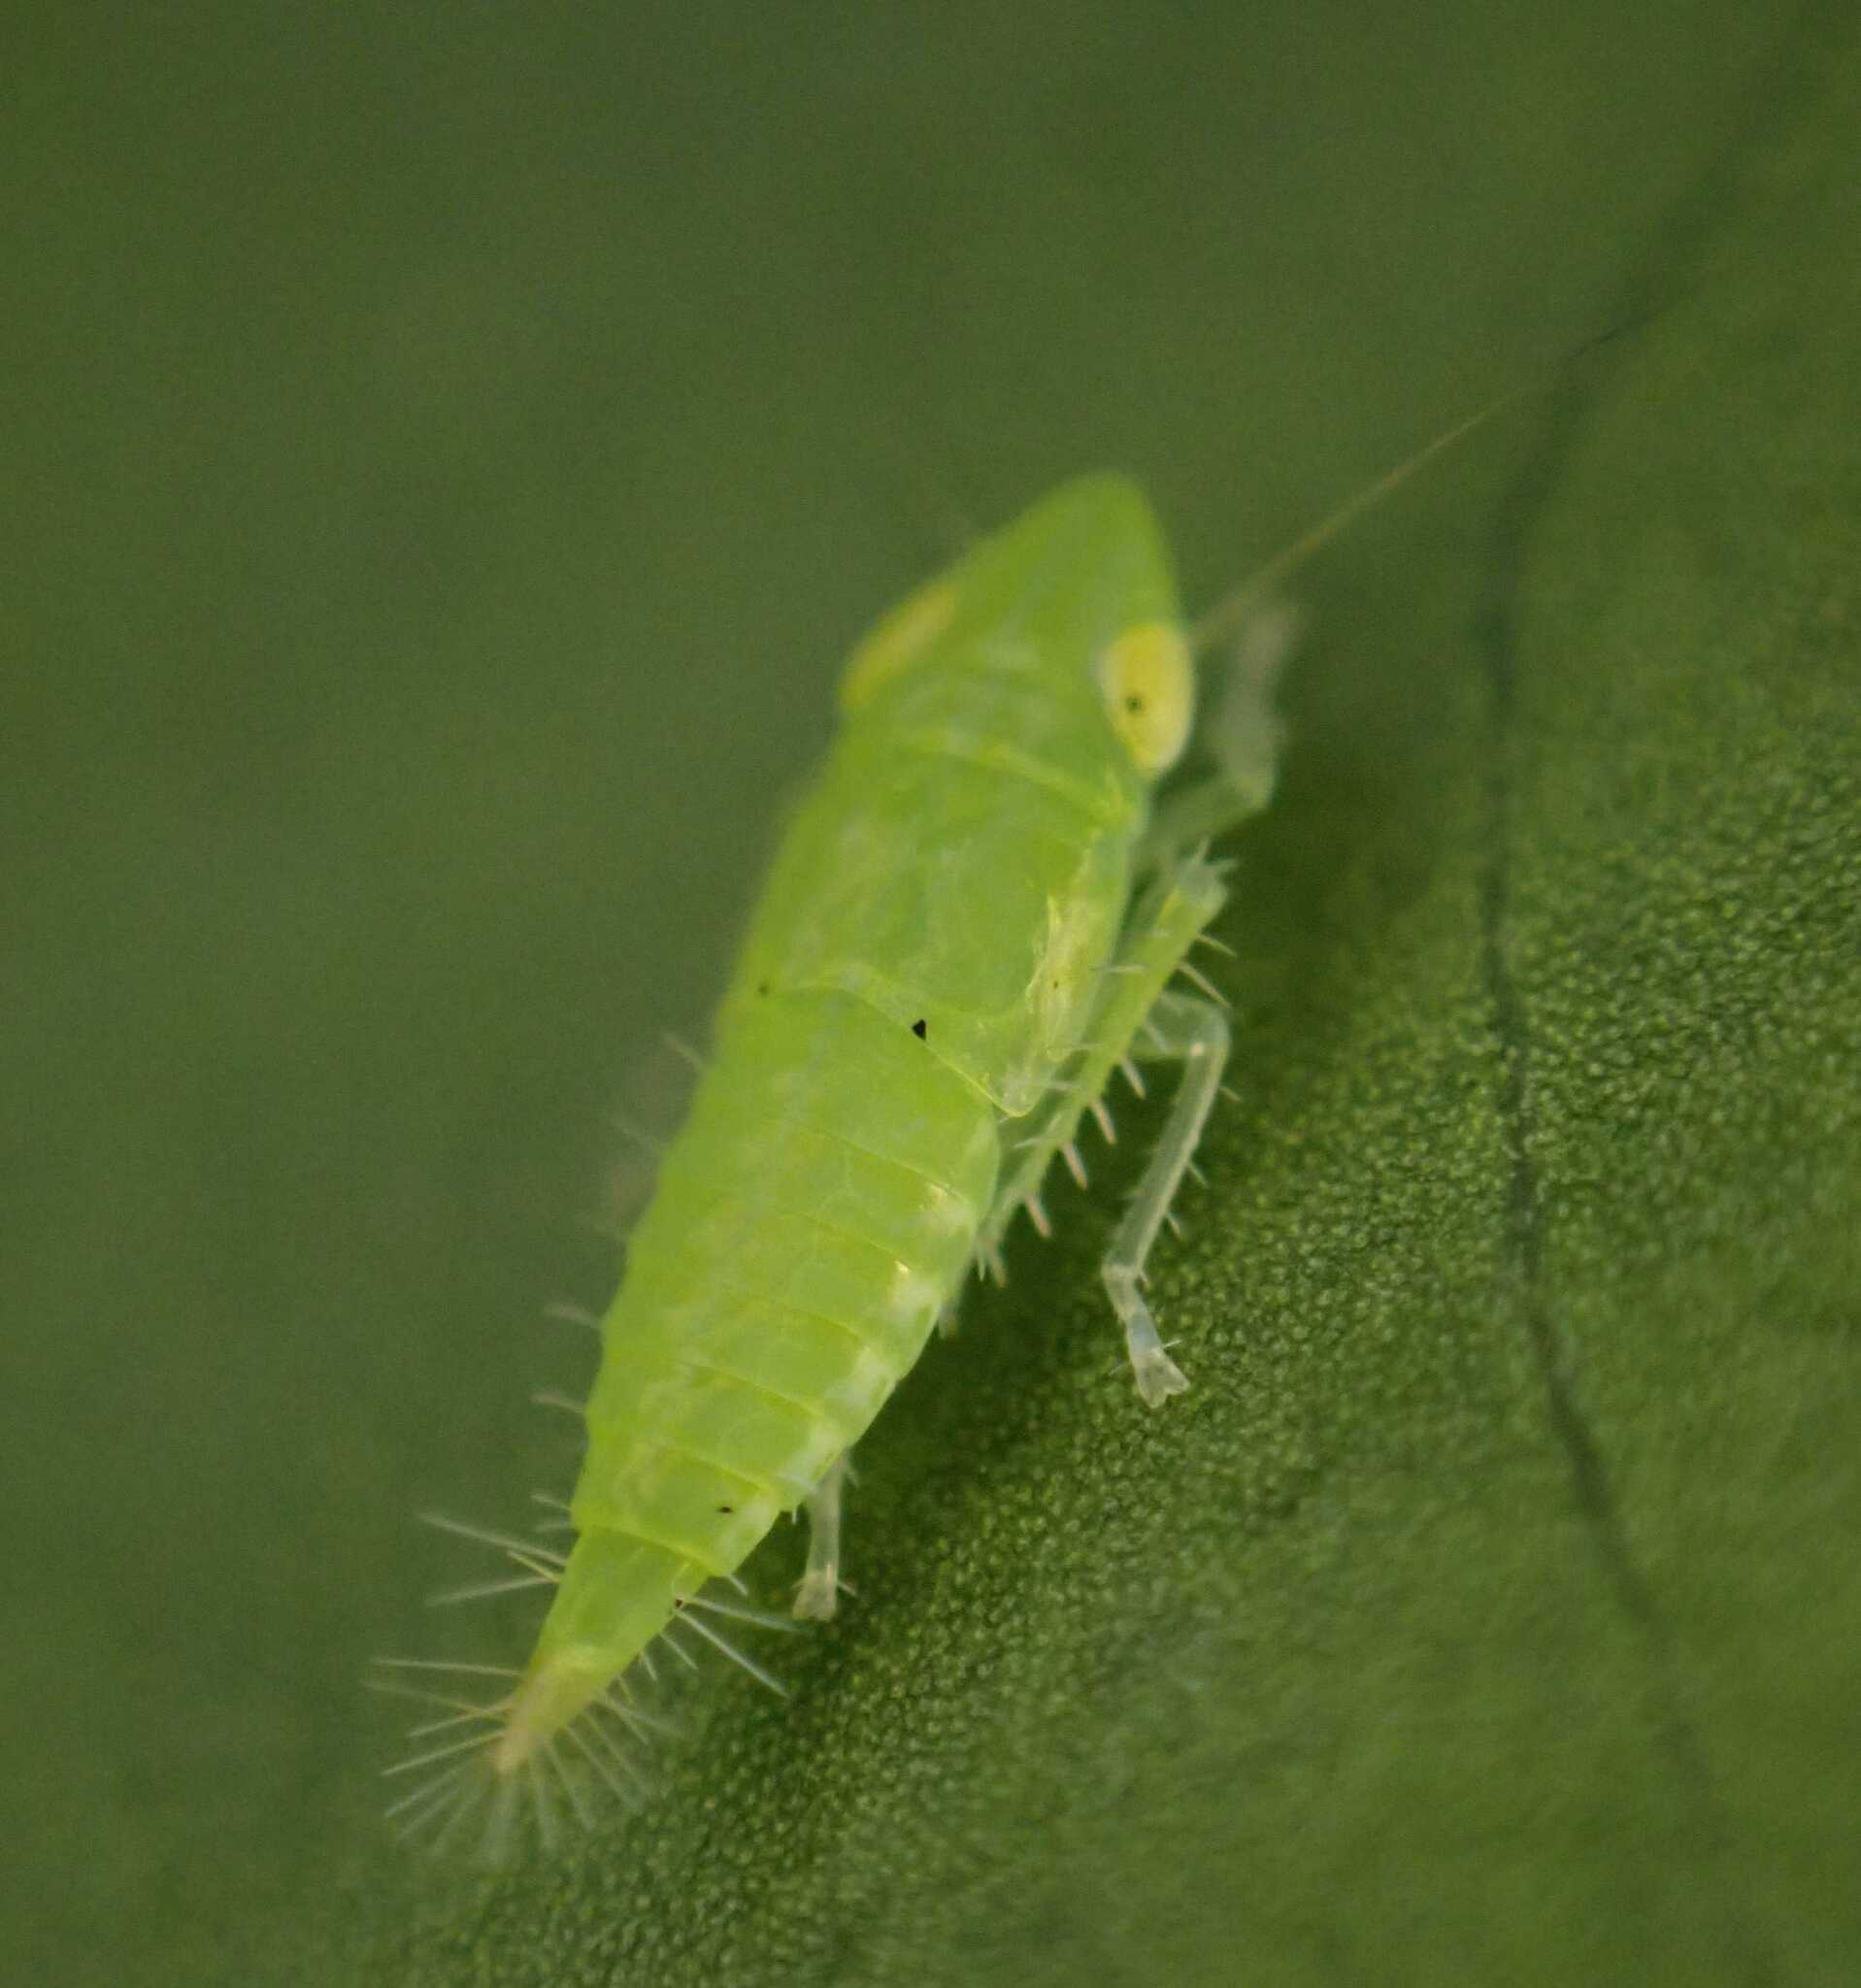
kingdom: Animalia
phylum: Arthropoda
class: Insecta
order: Hemiptera
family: Cicadellidae
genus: Synophropsis
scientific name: Synophropsis lauri
